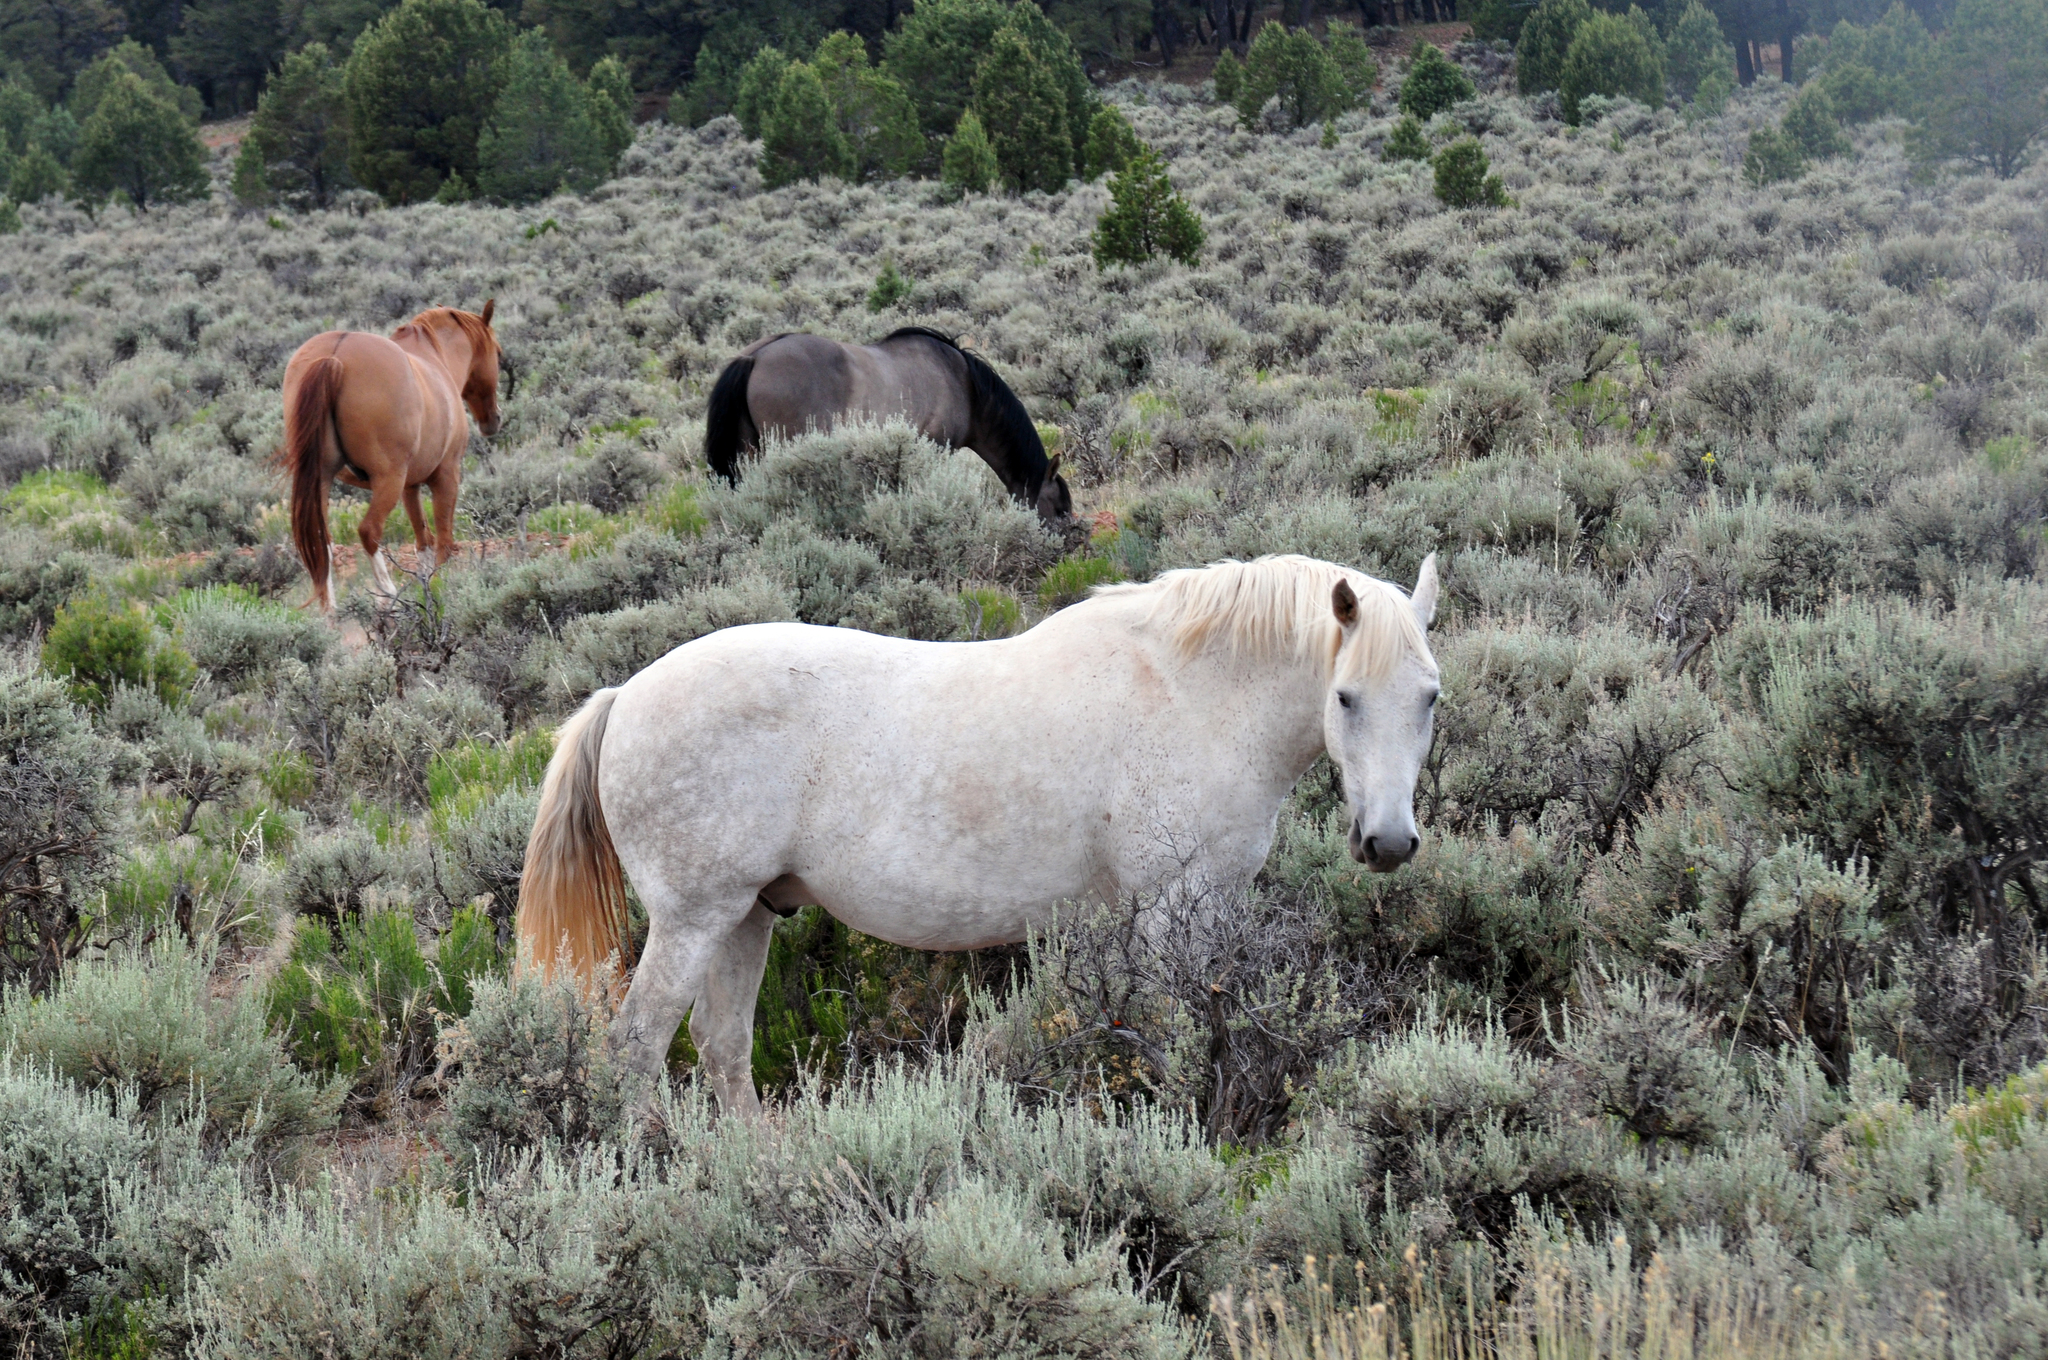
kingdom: Animalia
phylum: Chordata
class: Mammalia
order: Perissodactyla
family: Equidae
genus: Equus
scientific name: Equus caballus
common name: Horse
